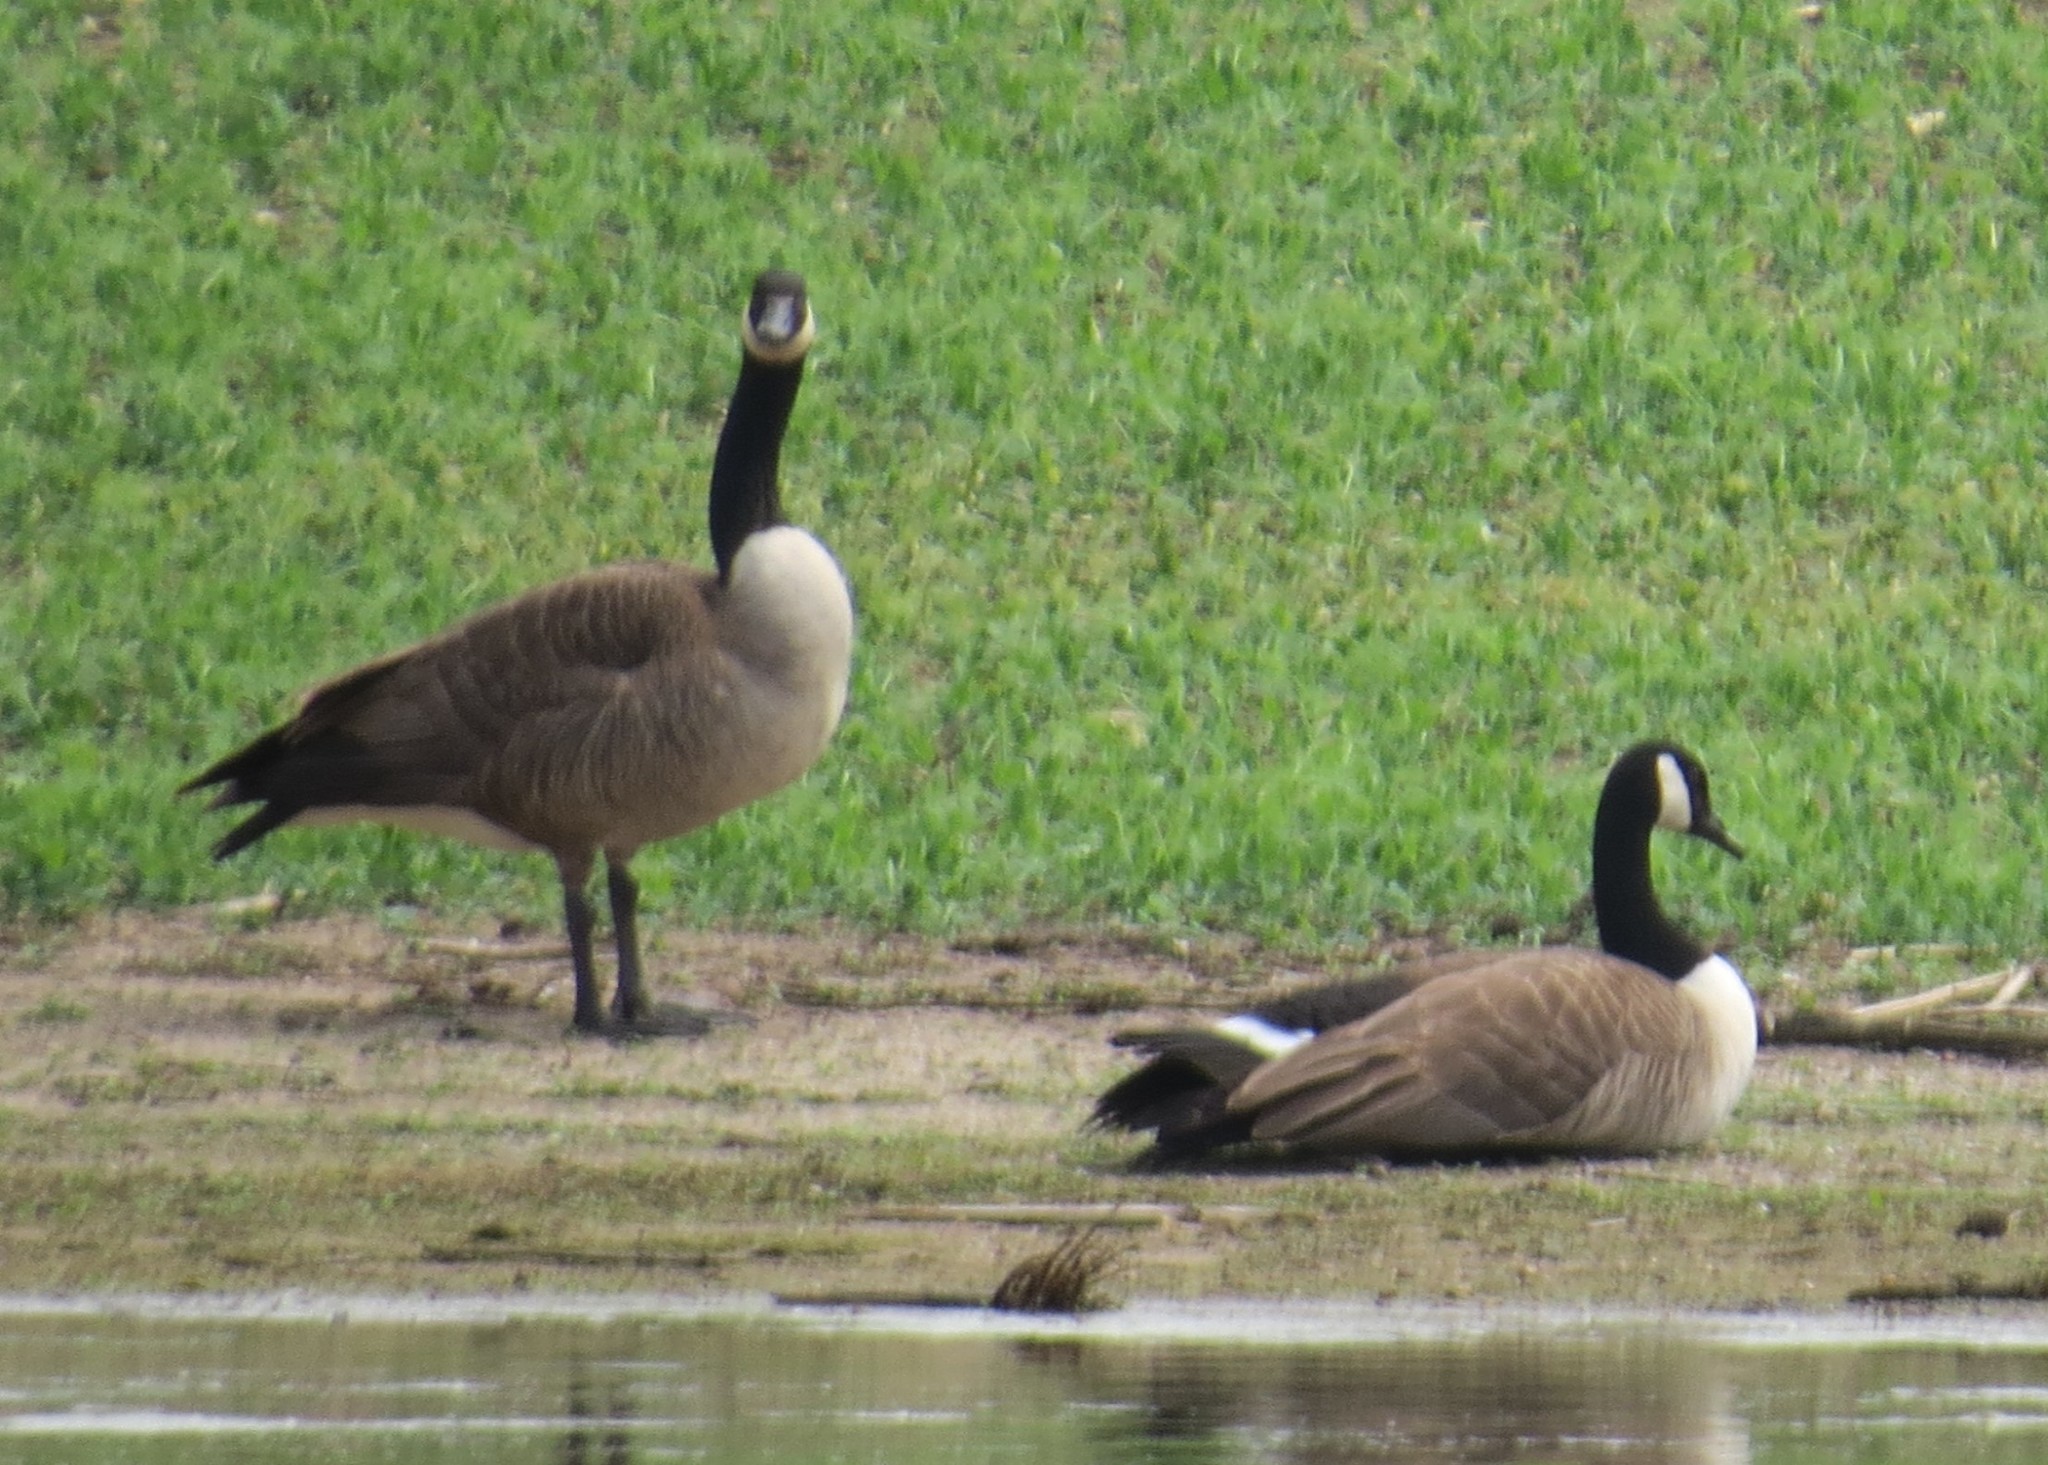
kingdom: Animalia
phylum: Chordata
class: Aves
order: Anseriformes
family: Anatidae
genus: Branta
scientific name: Branta canadensis
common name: Canada goose
